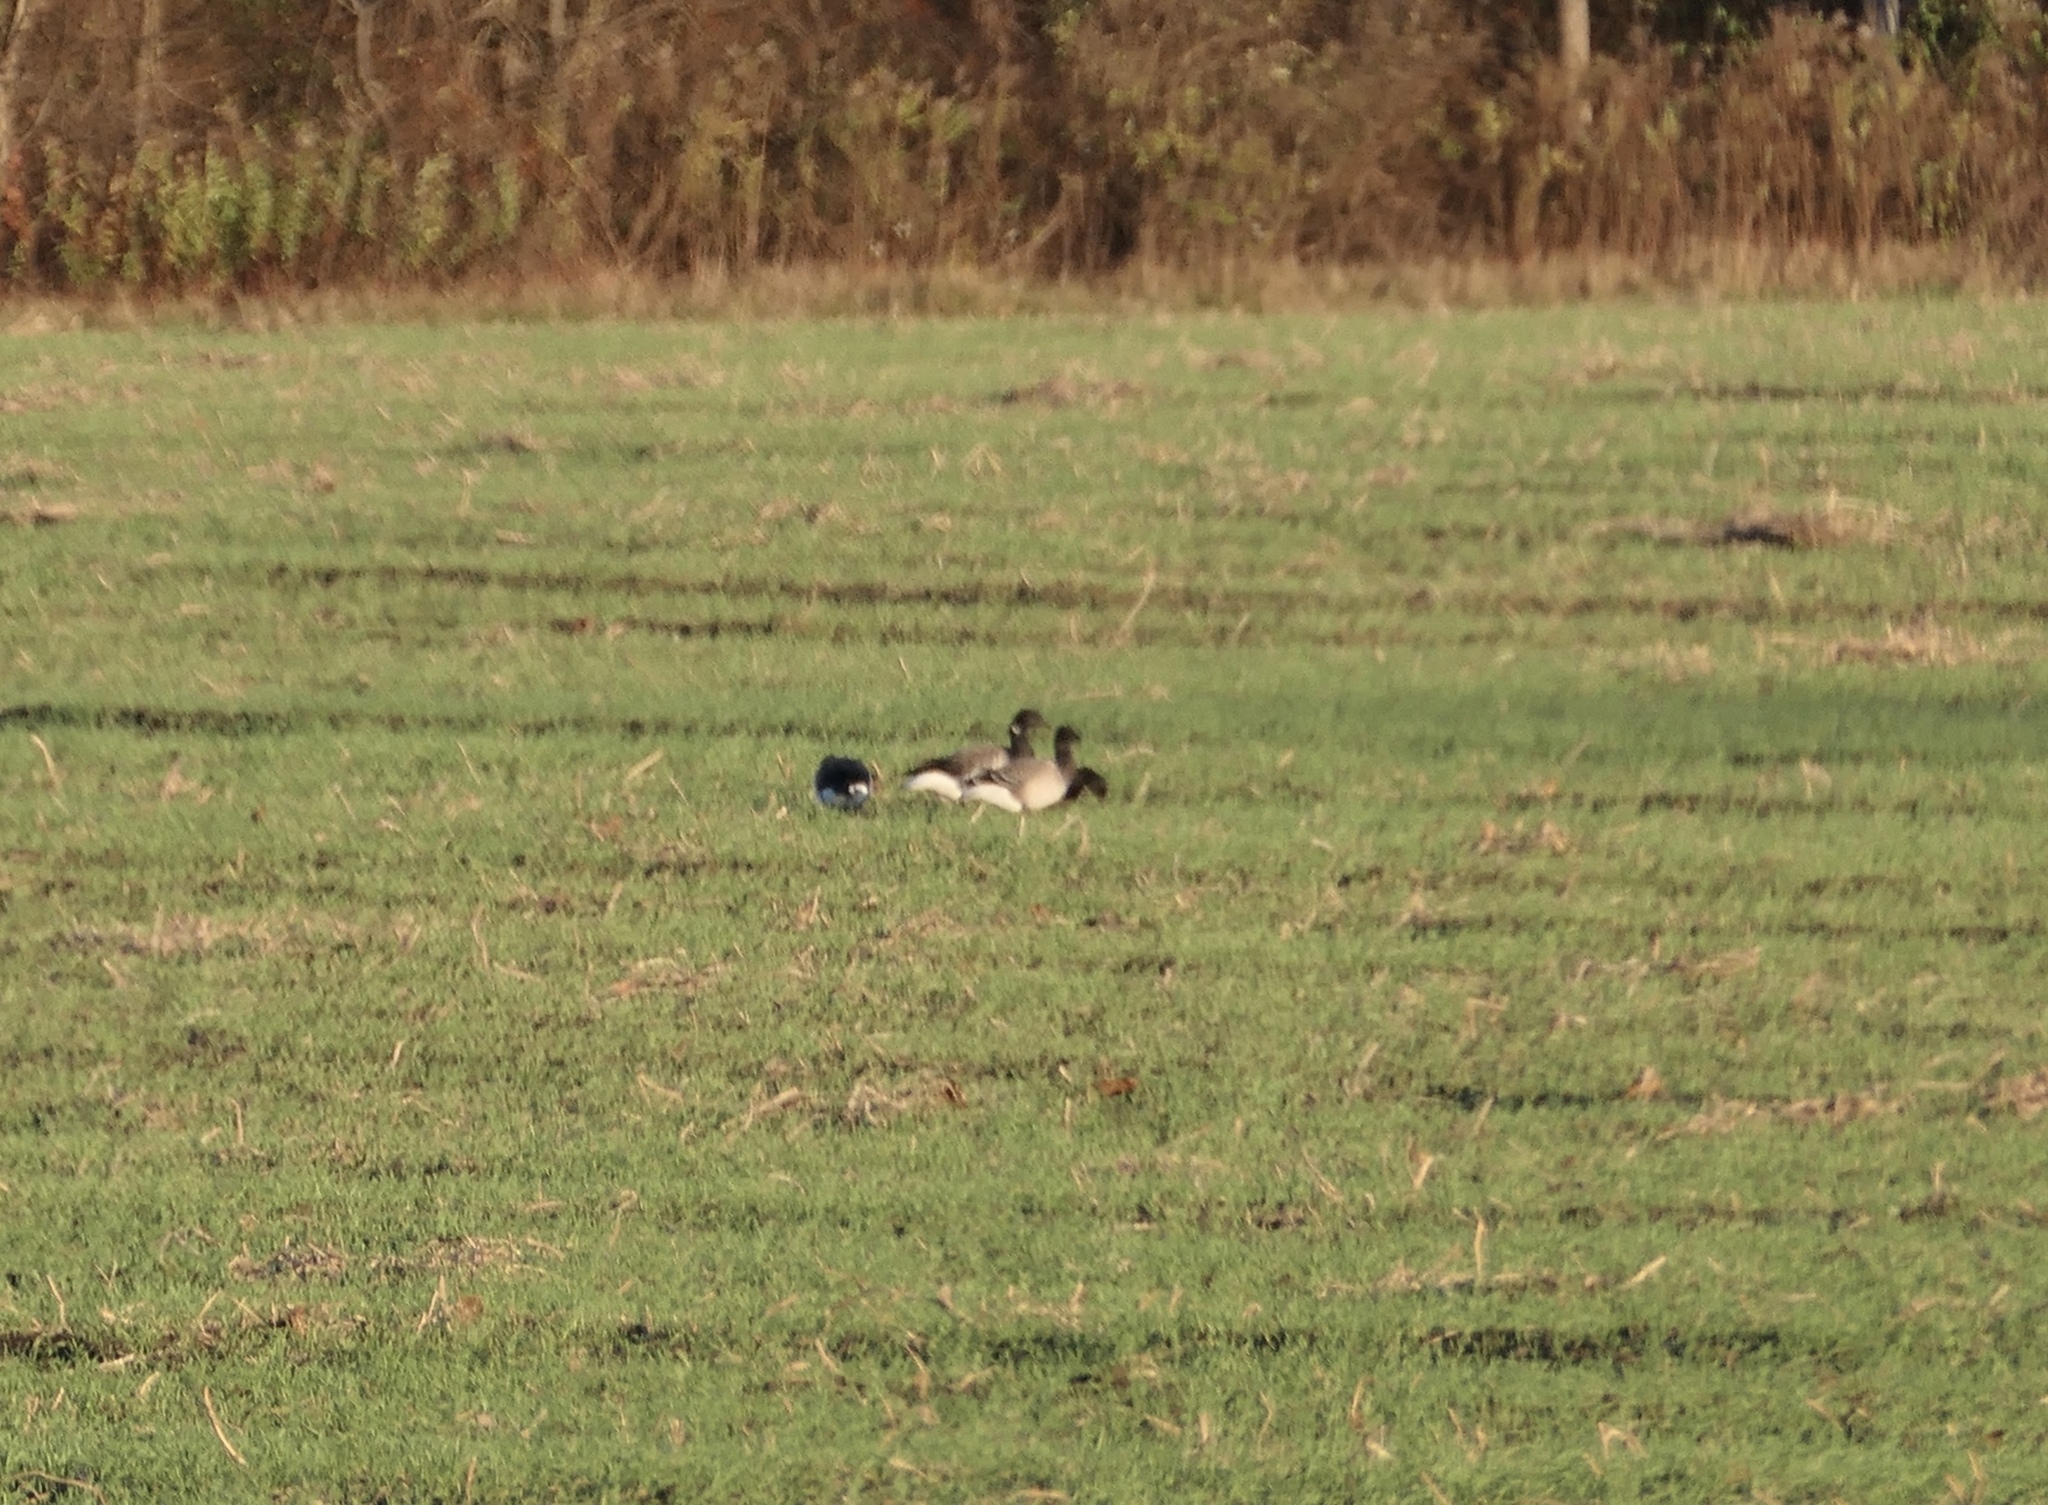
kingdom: Animalia
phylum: Chordata
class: Aves
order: Anseriformes
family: Anatidae
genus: Branta
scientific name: Branta bernicla
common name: Brant goose
